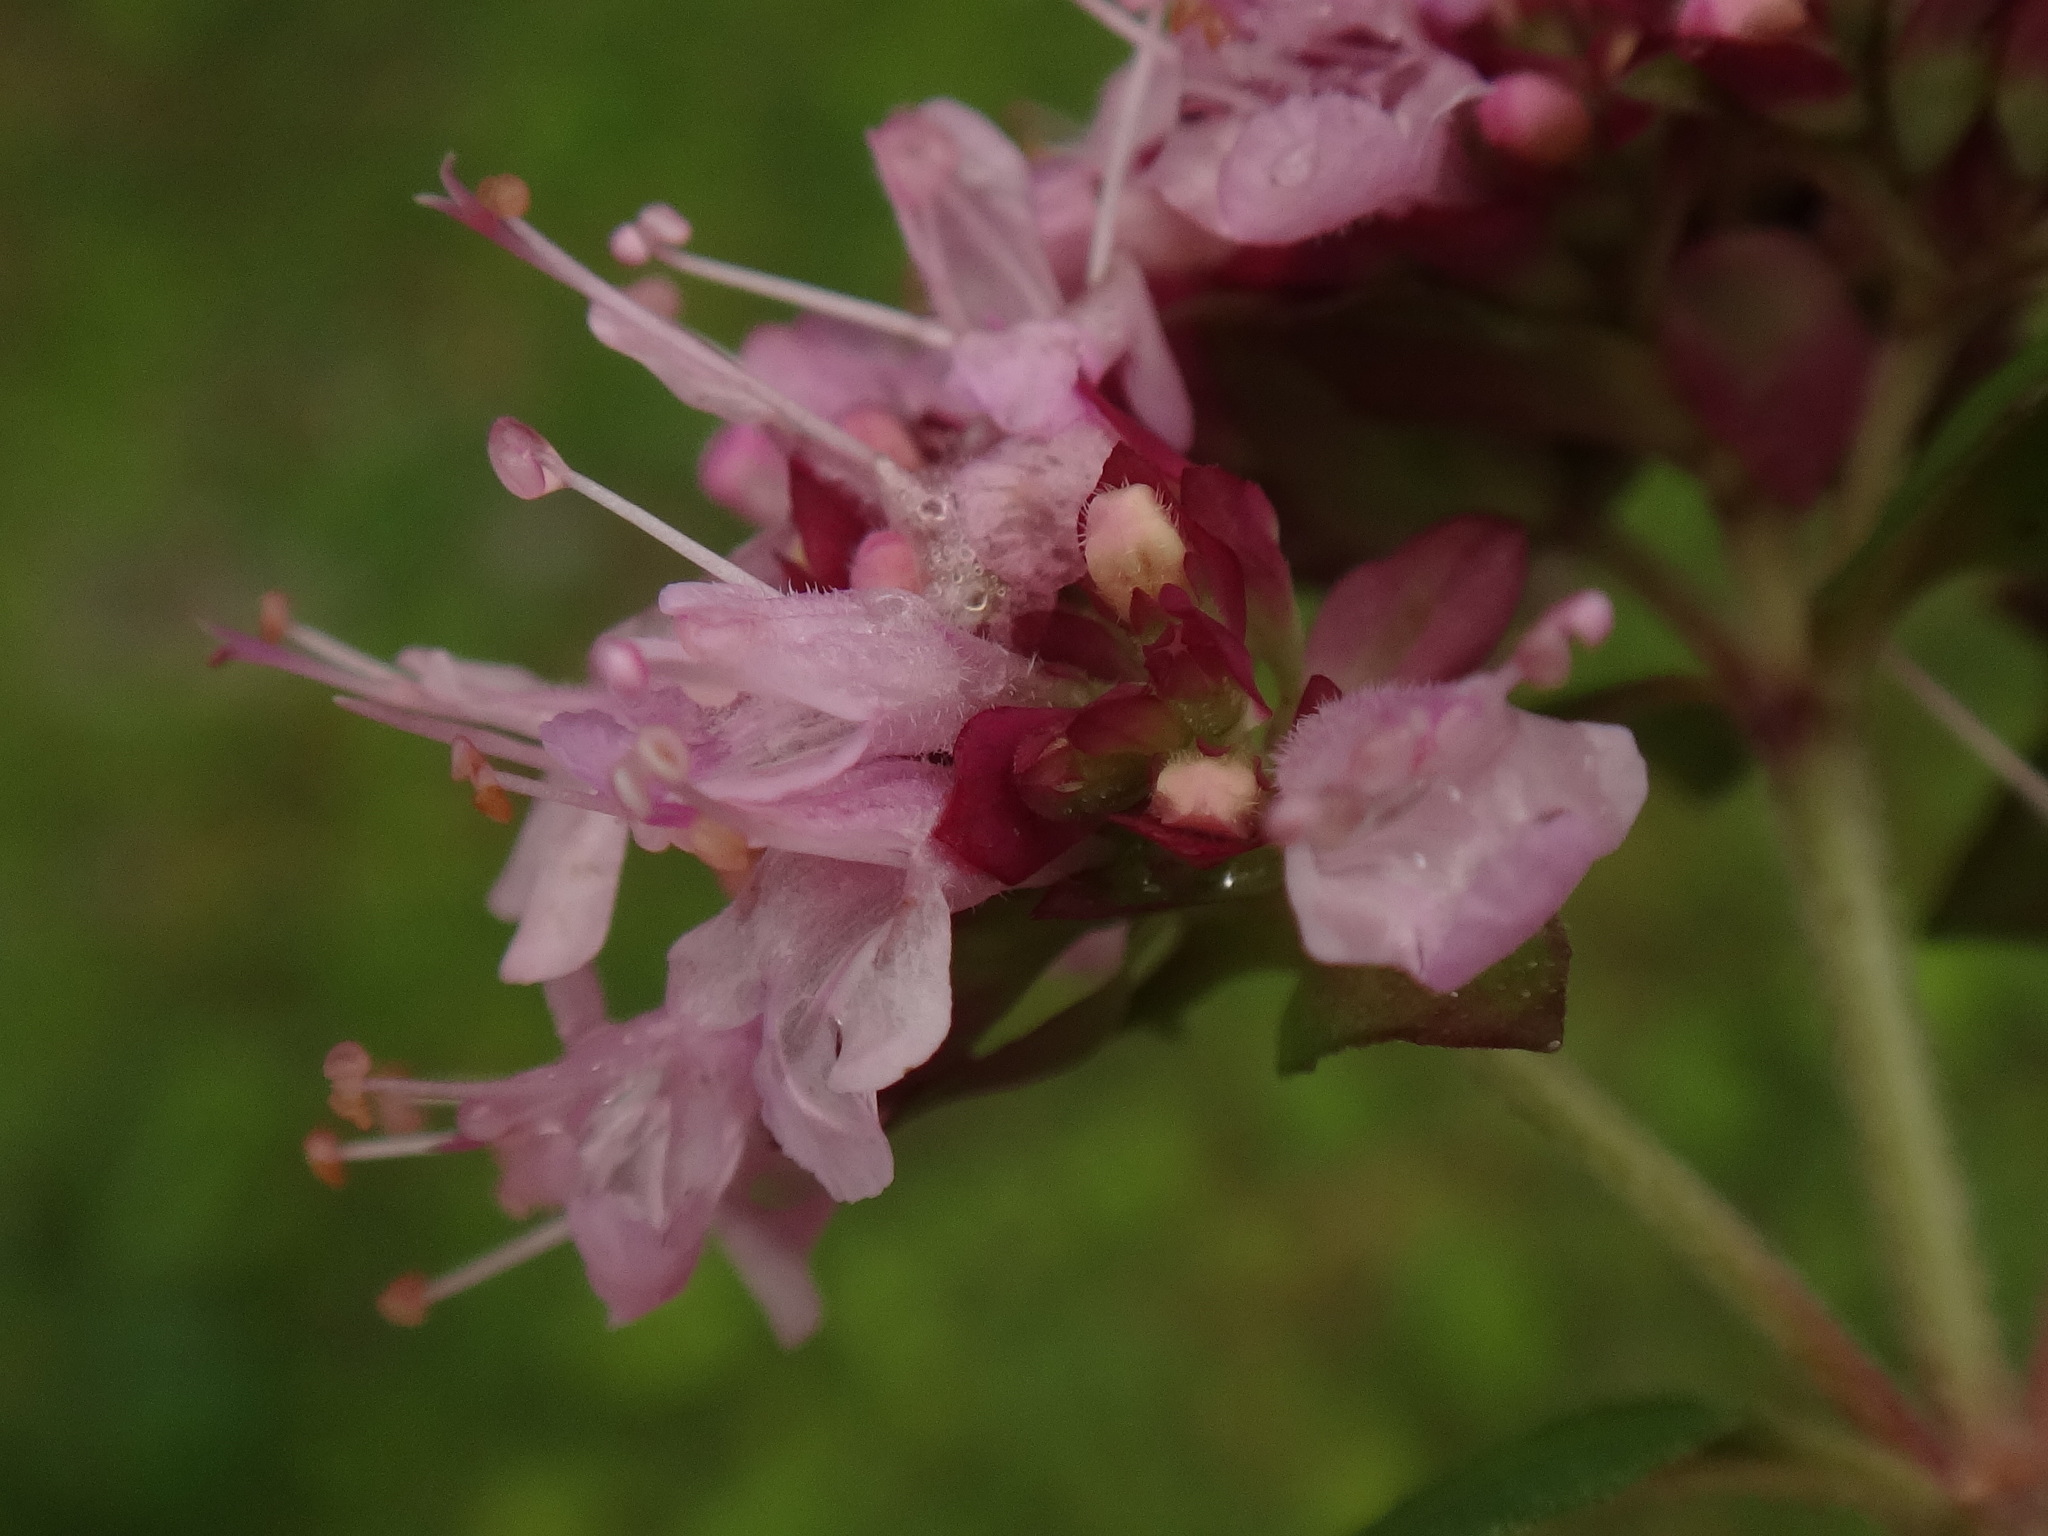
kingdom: Plantae
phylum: Tracheophyta
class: Magnoliopsida
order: Lamiales
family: Lamiaceae
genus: Origanum
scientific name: Origanum vulgare
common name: Wild marjoram
